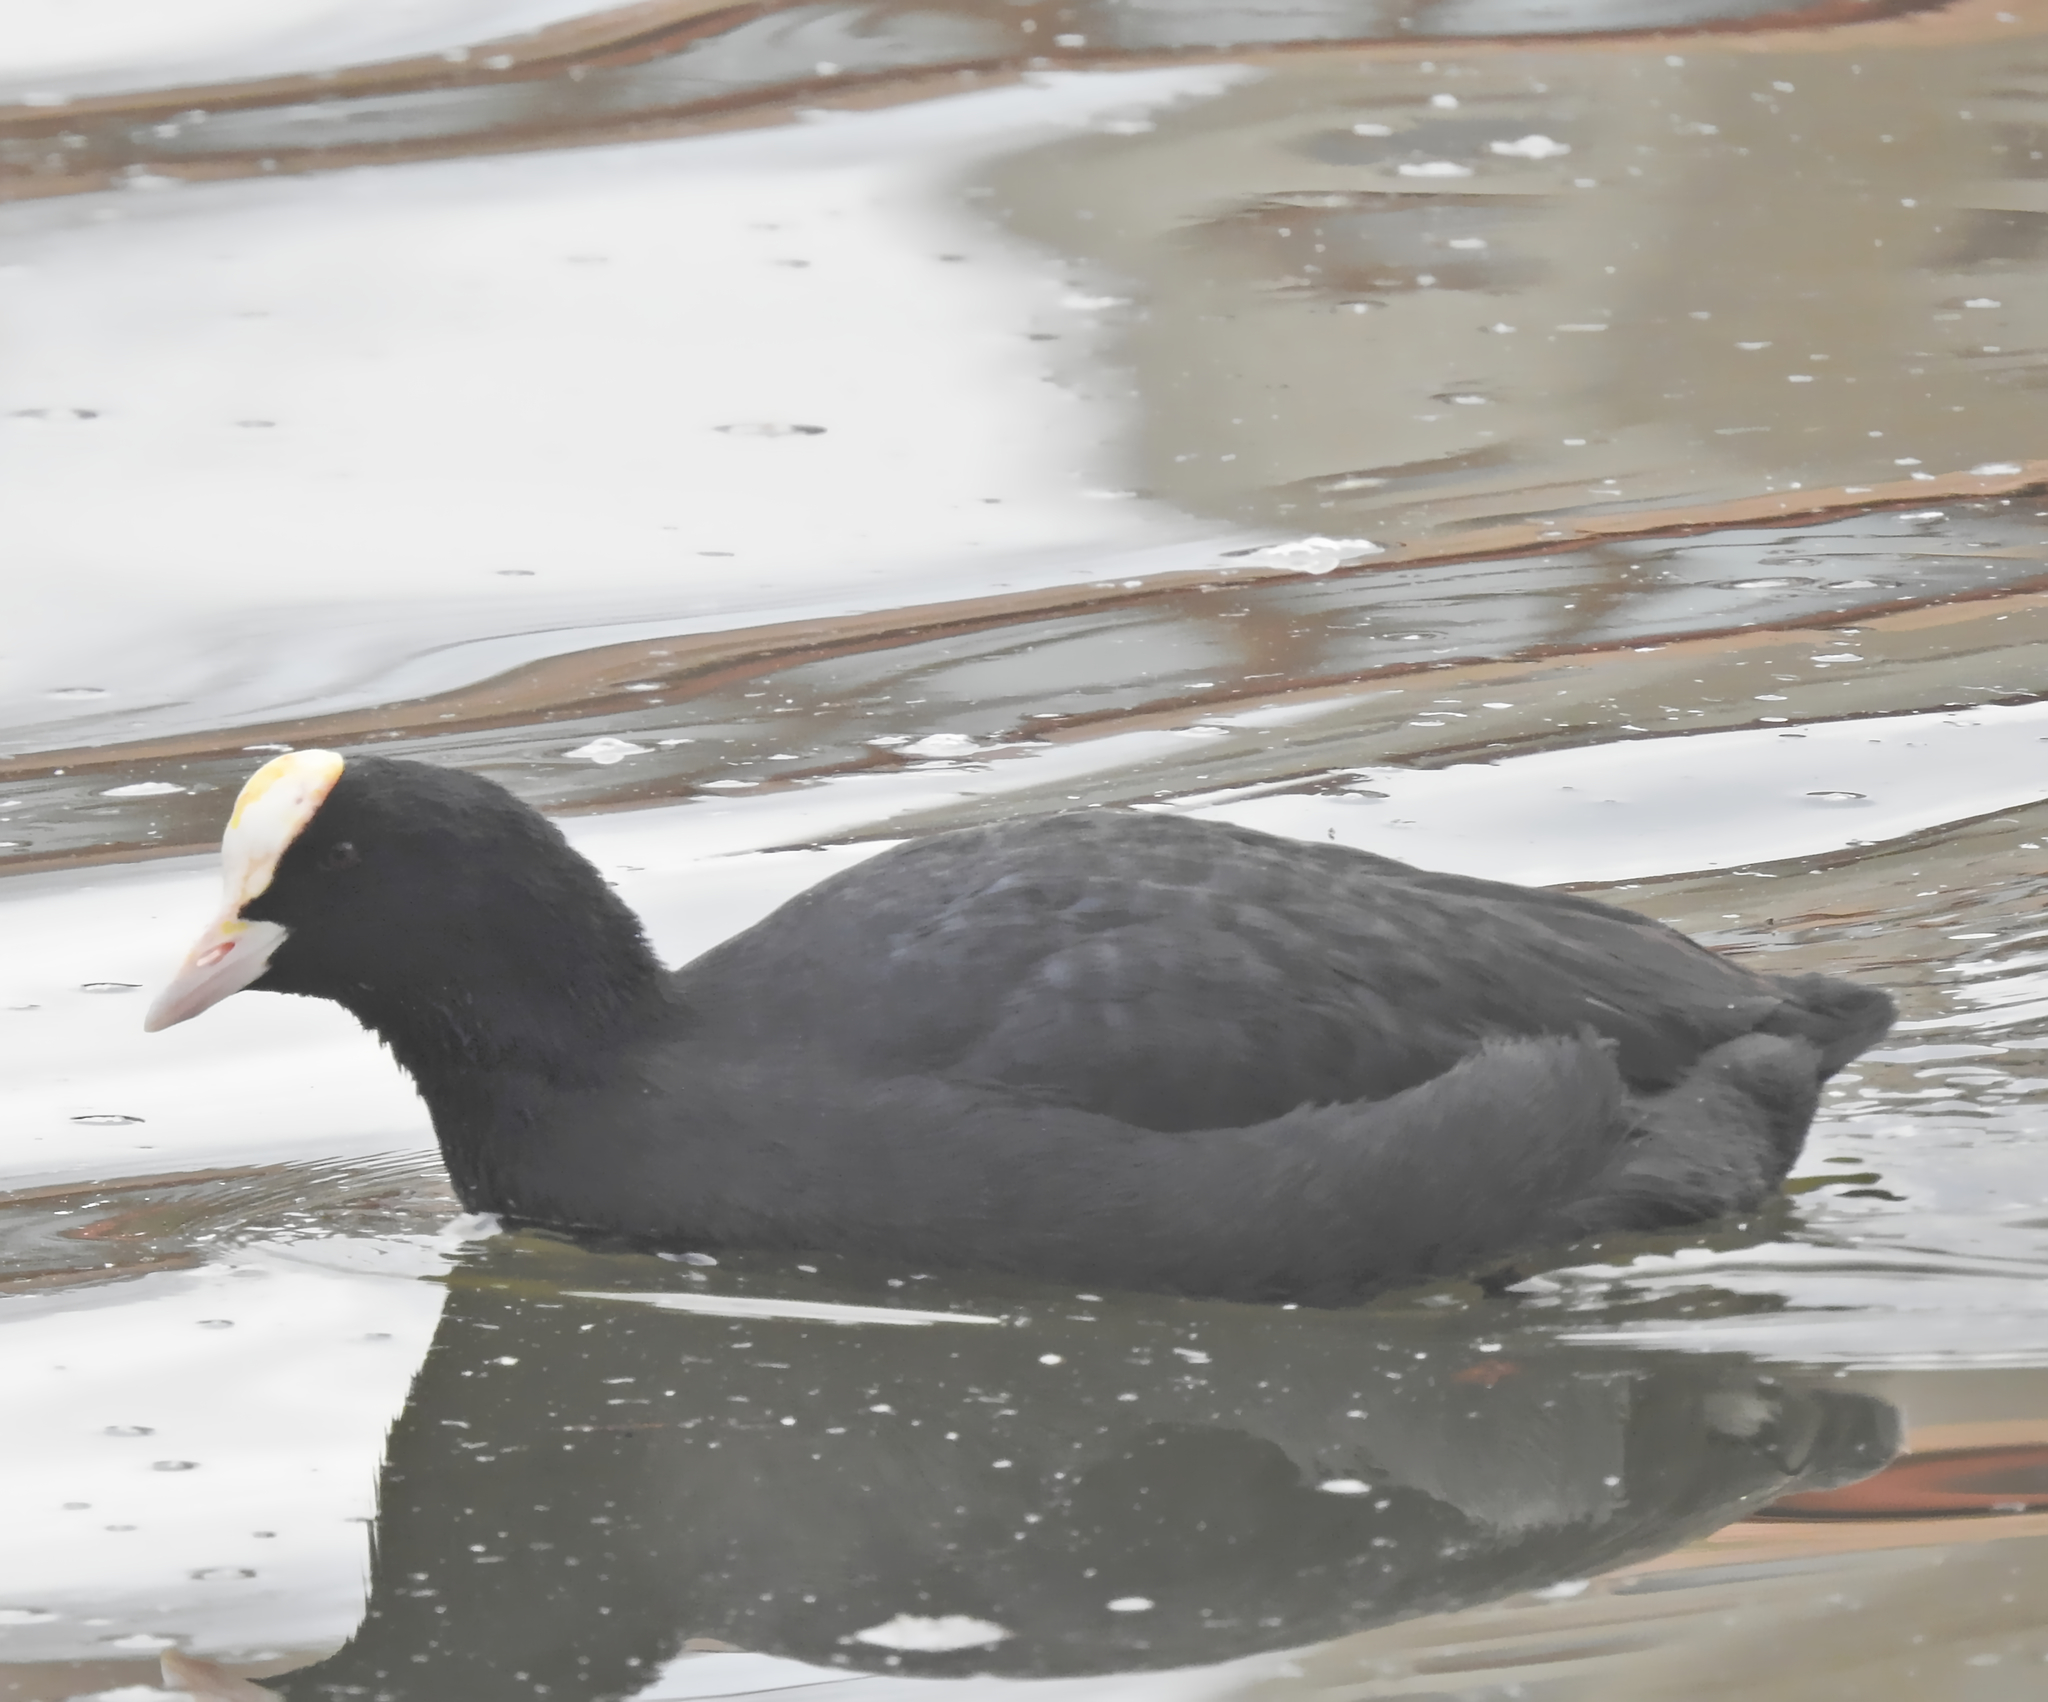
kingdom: Animalia
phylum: Chordata
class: Aves
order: Gruiformes
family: Rallidae
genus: Fulica
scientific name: Fulica atra
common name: Eurasian coot
